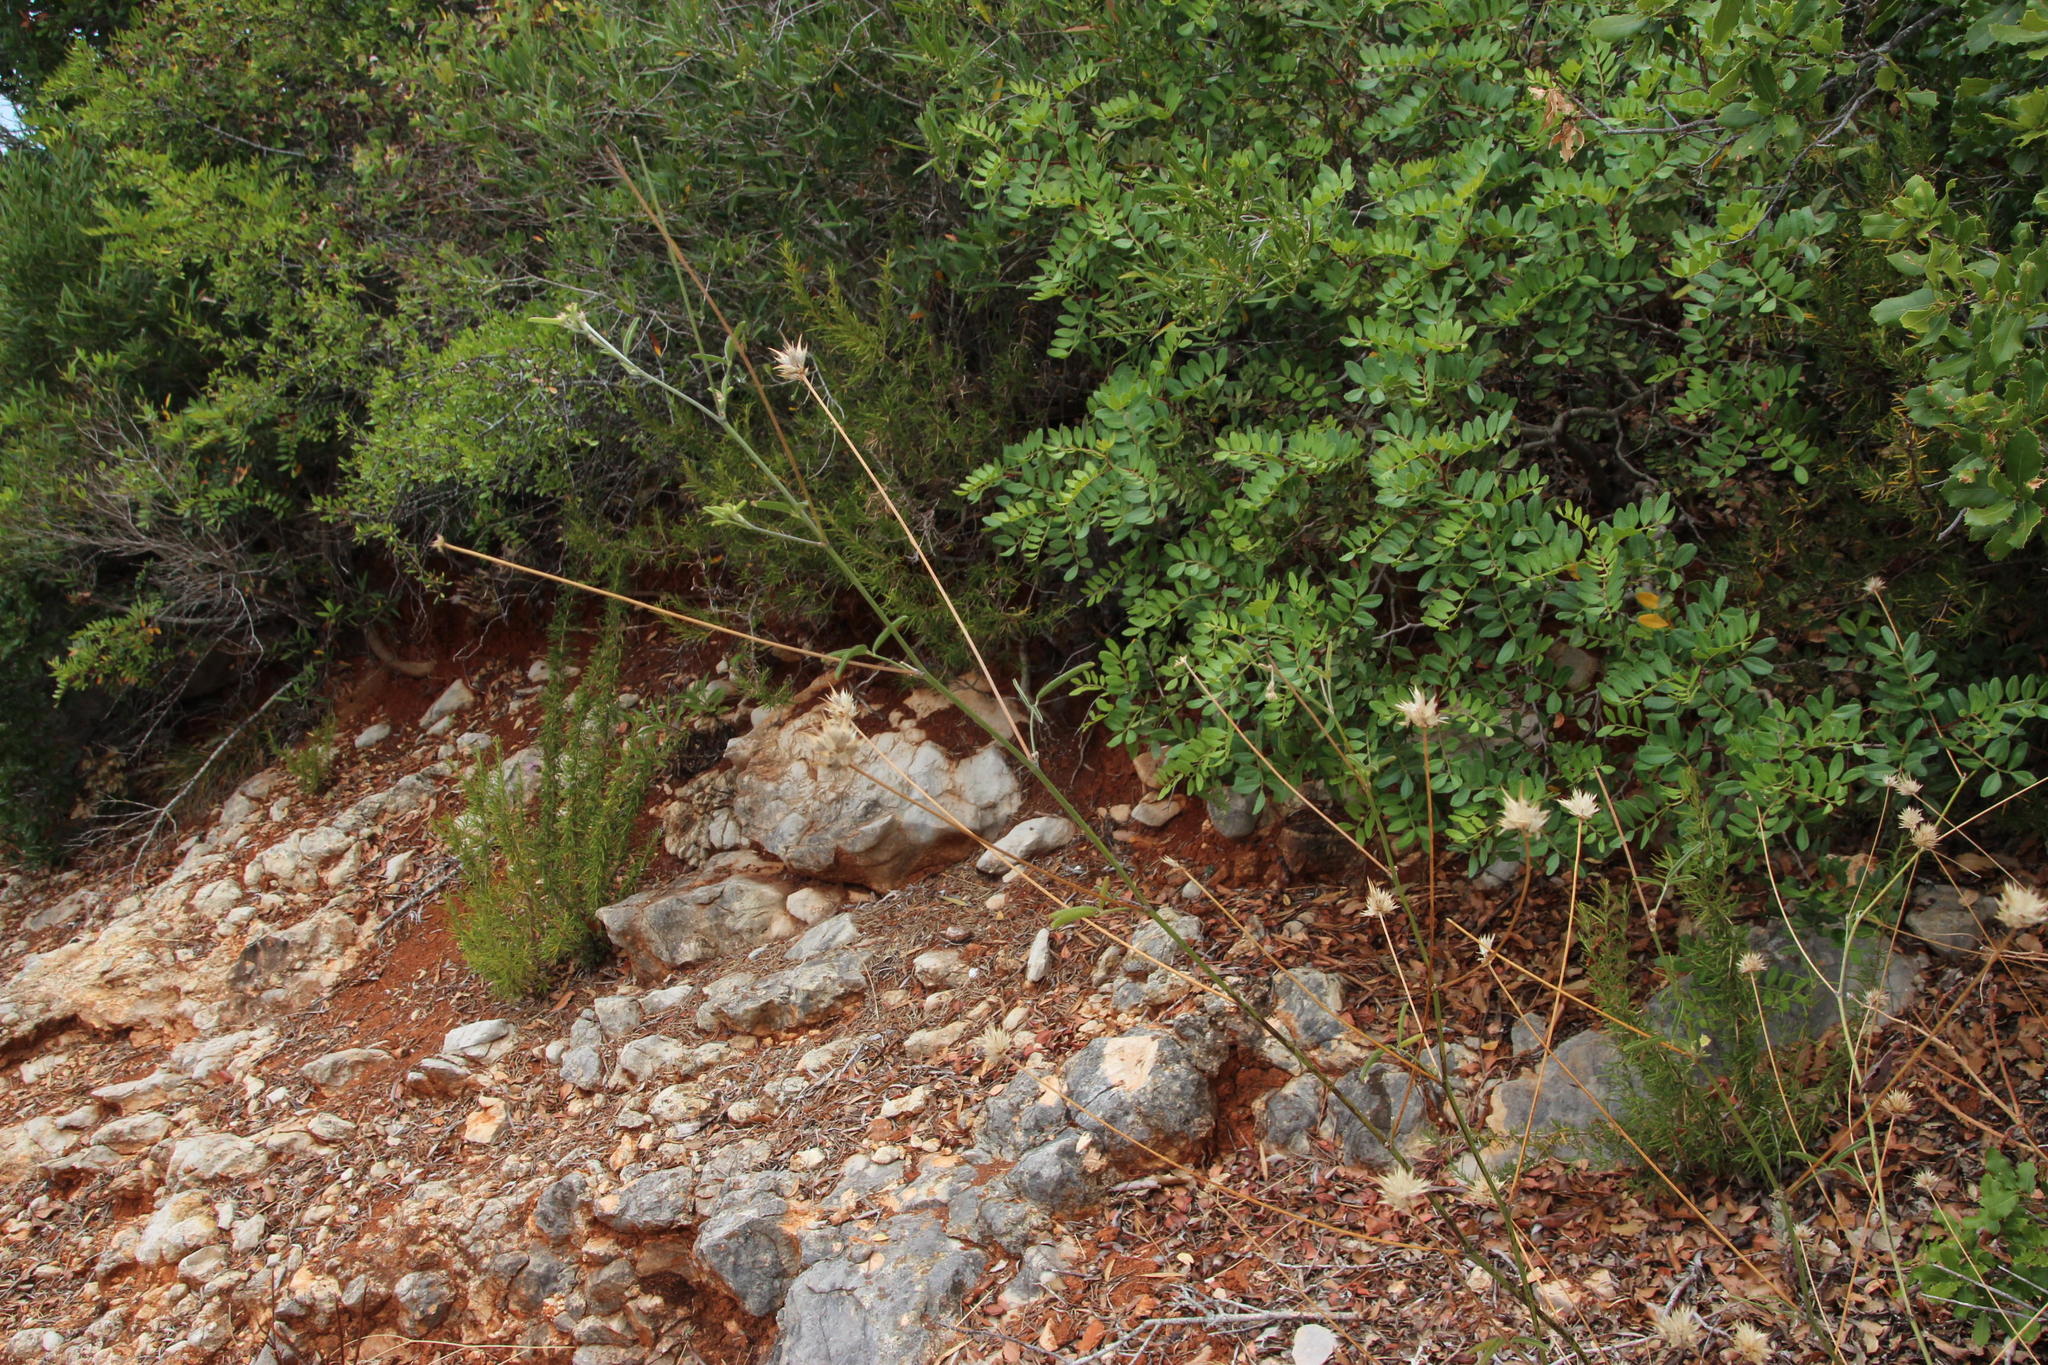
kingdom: Plantae
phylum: Tracheophyta
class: Magnoliopsida
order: Fabales
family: Fabaceae
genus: Bituminaria
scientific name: Bituminaria bituminosa
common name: Arabian pea
